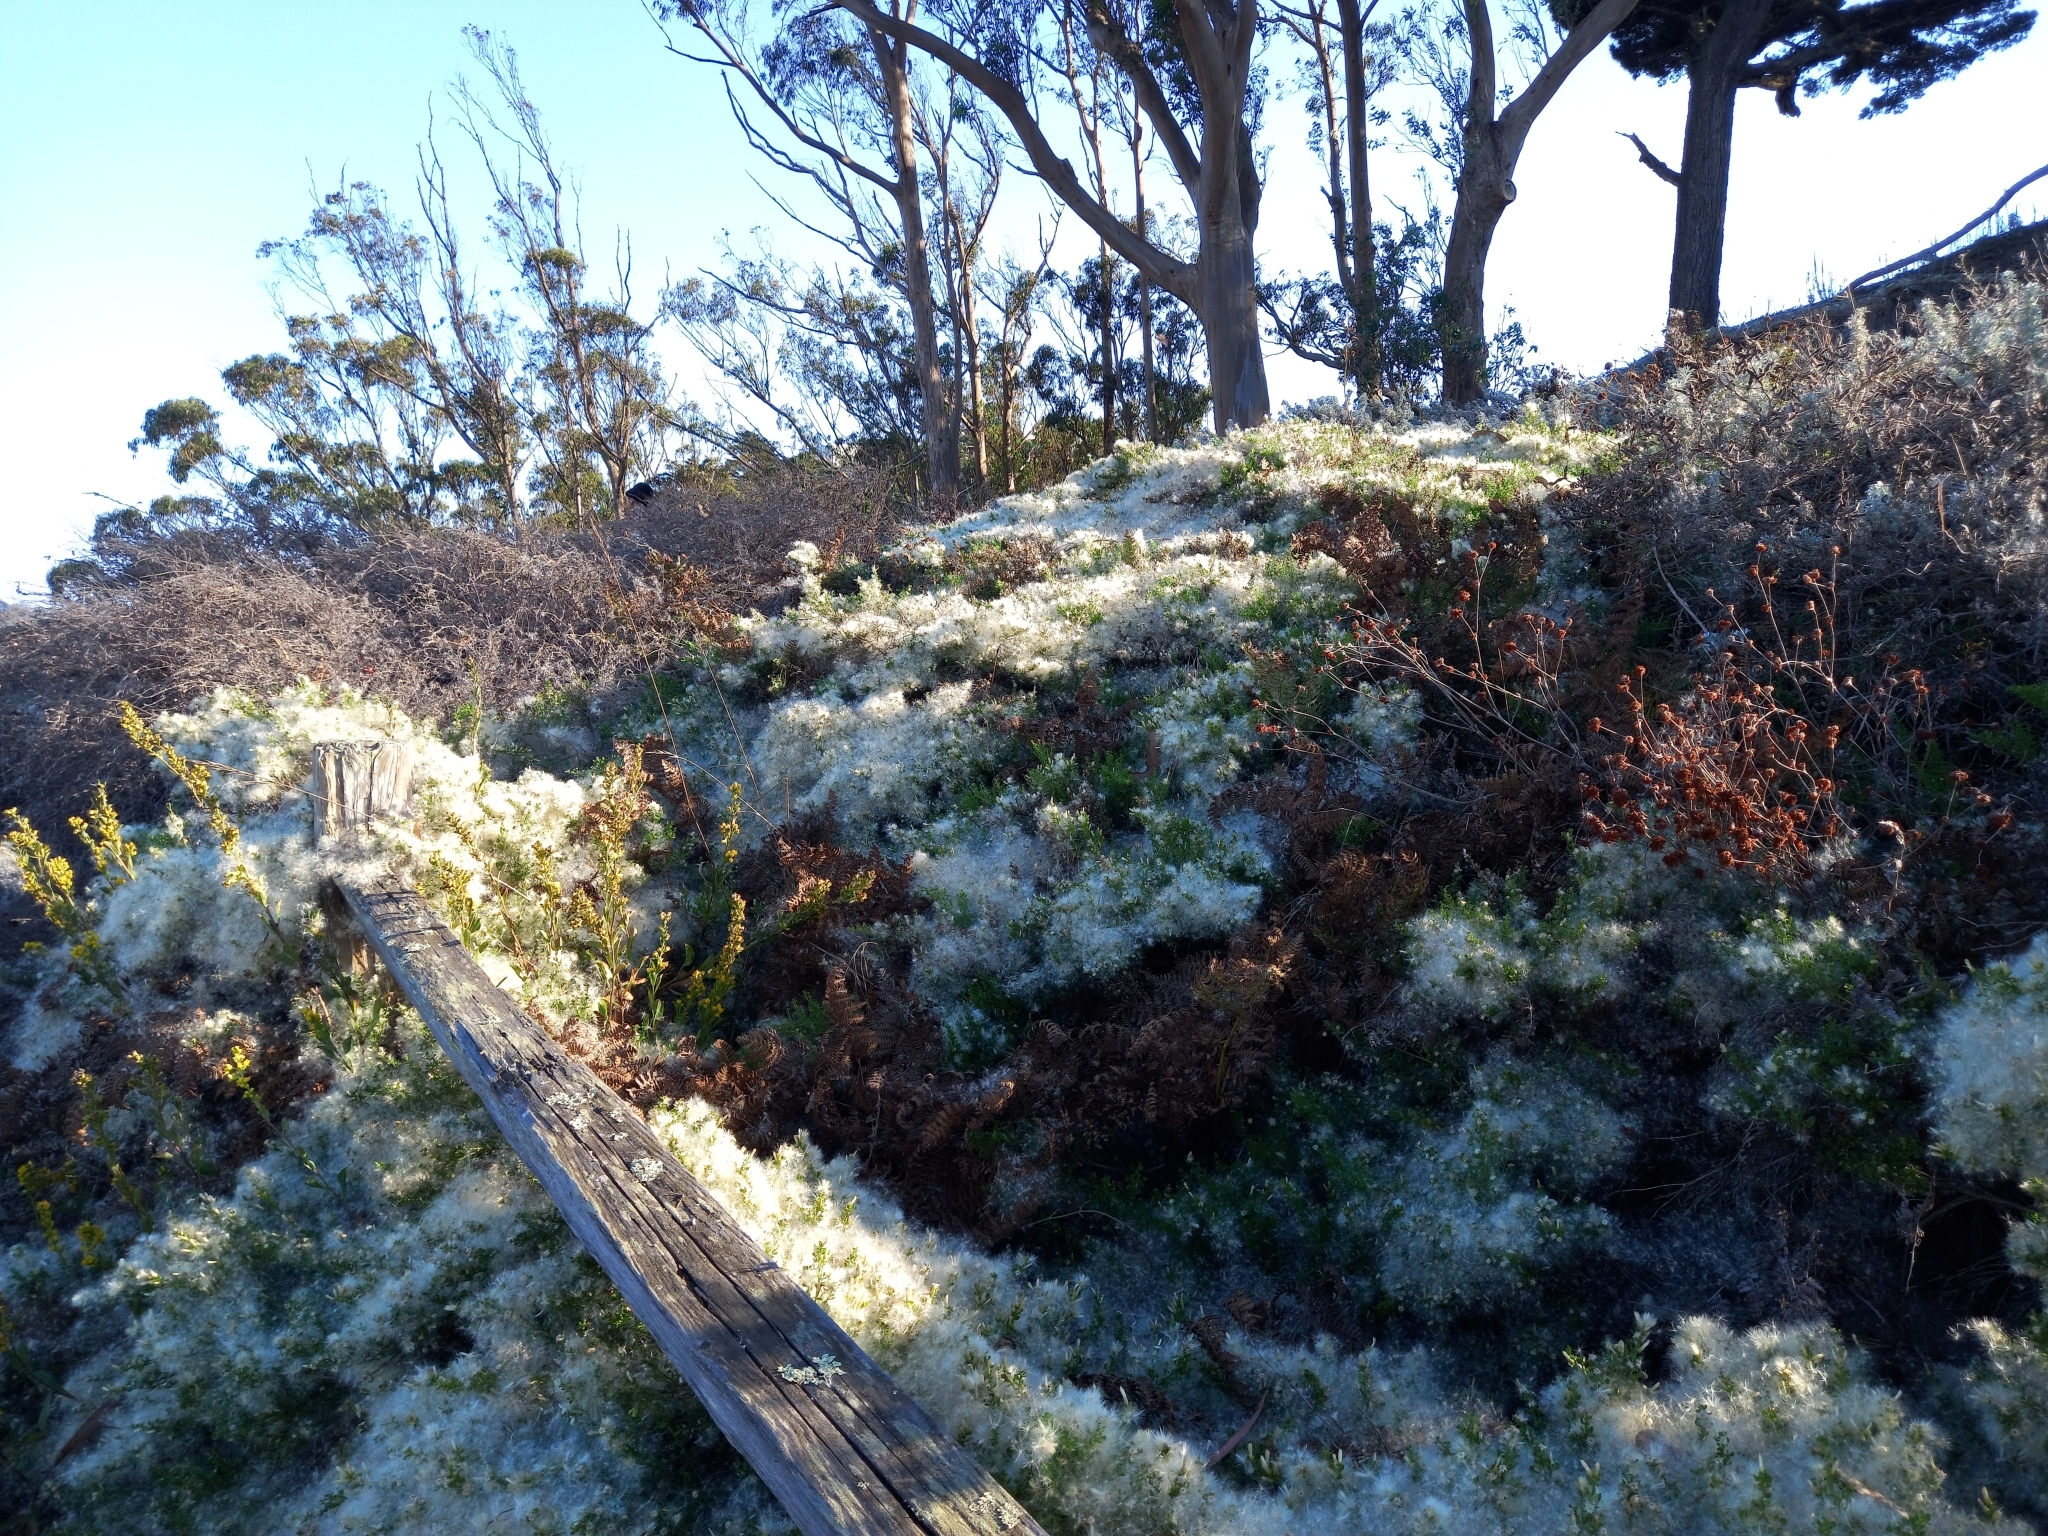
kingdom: Plantae
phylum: Tracheophyta
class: Magnoliopsida
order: Asterales
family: Asteraceae
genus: Baccharis
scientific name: Baccharis pilularis
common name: Coyotebrush
